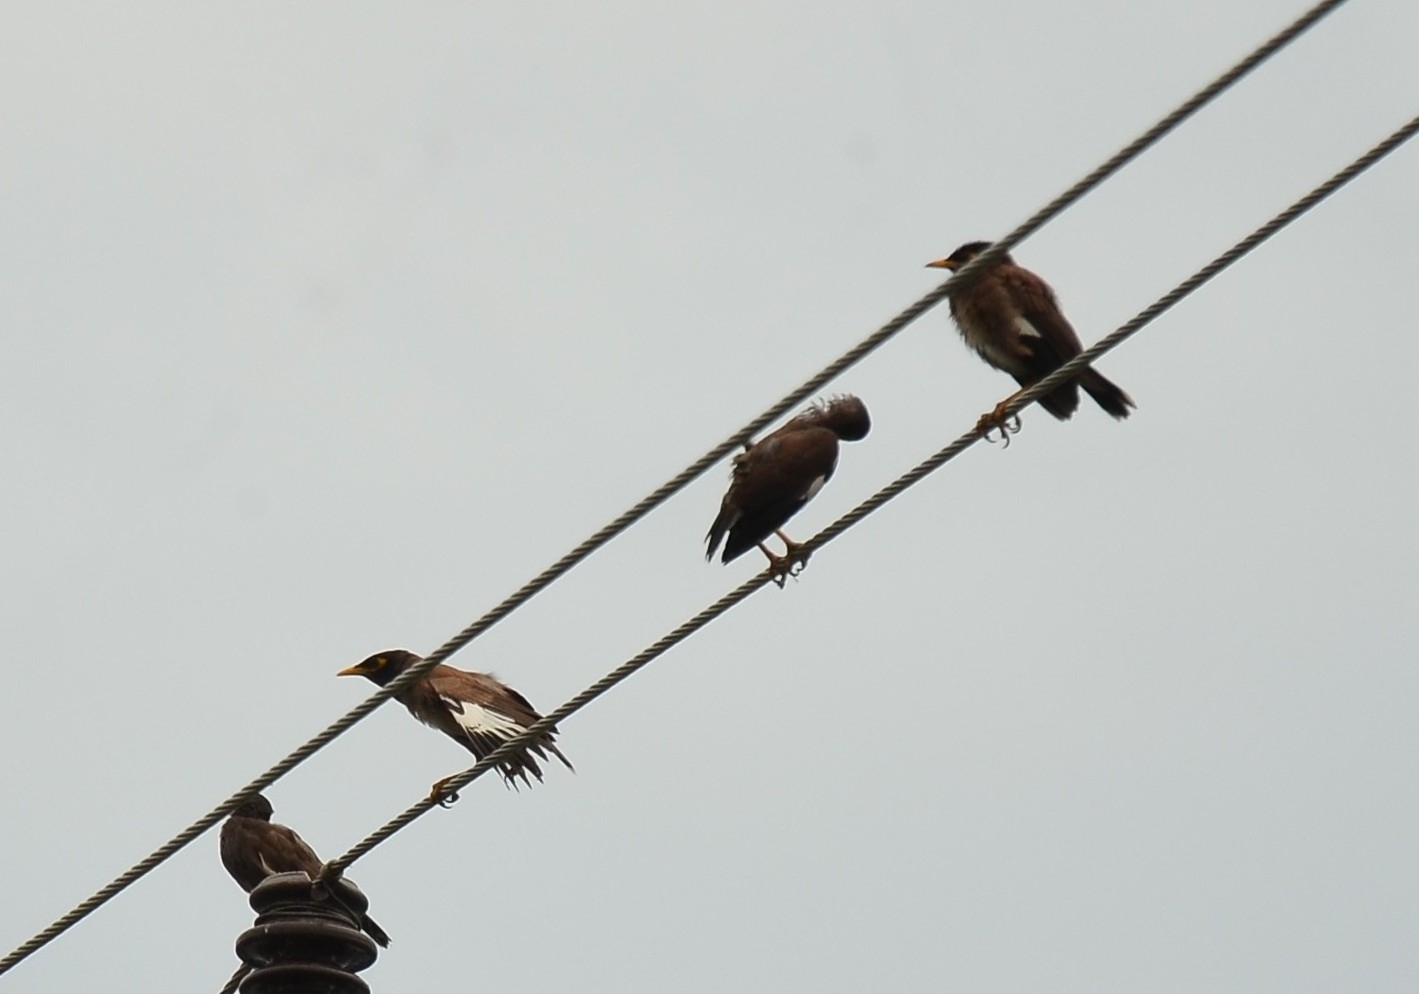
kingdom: Animalia
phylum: Chordata
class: Aves
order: Passeriformes
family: Sturnidae
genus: Acridotheres
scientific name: Acridotheres tristis
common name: Common myna
